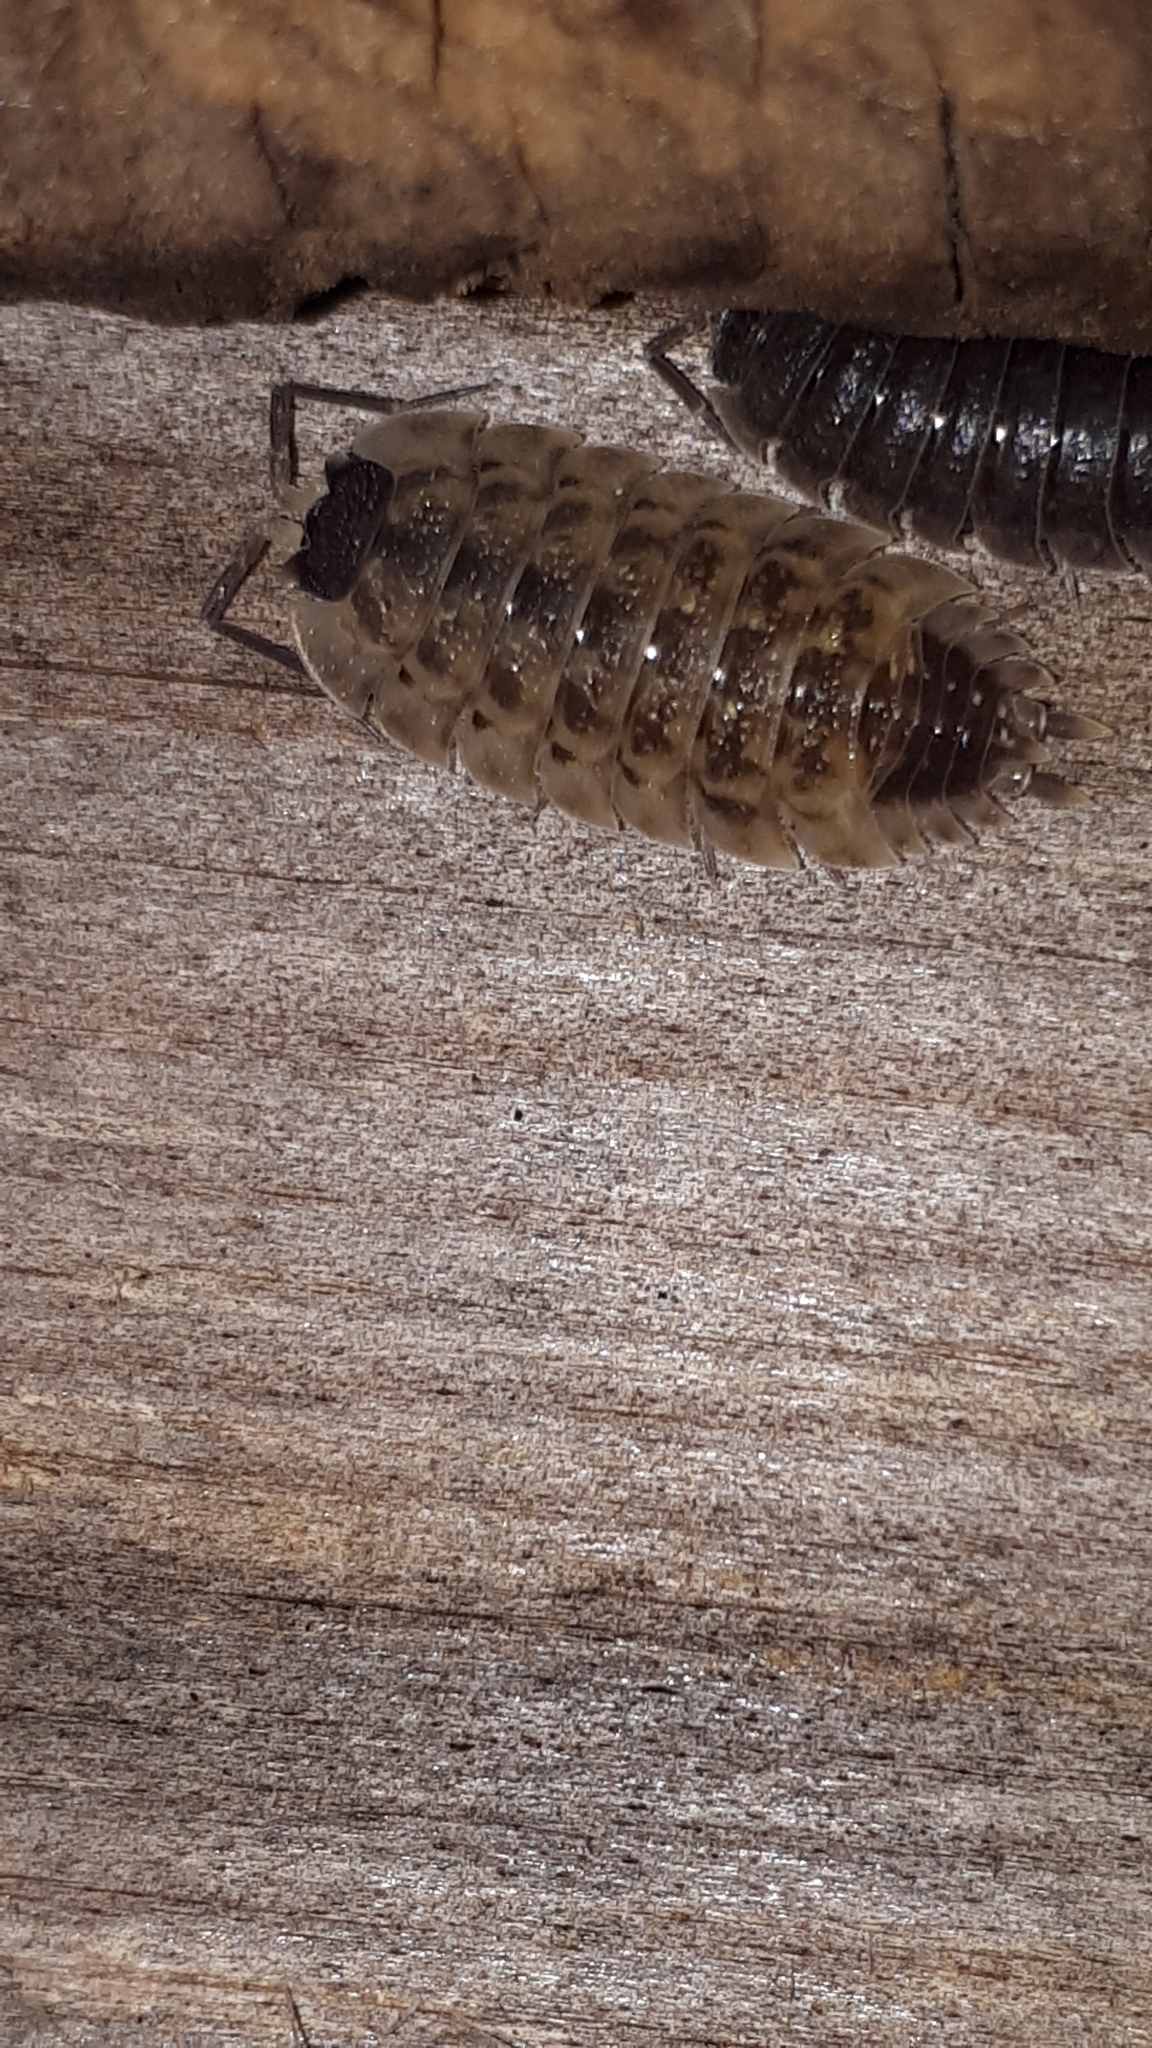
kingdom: Animalia
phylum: Arthropoda
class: Malacostraca
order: Isopoda
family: Porcellionidae
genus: Porcellio
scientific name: Porcellio spinicornis
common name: Painted woodlouse
